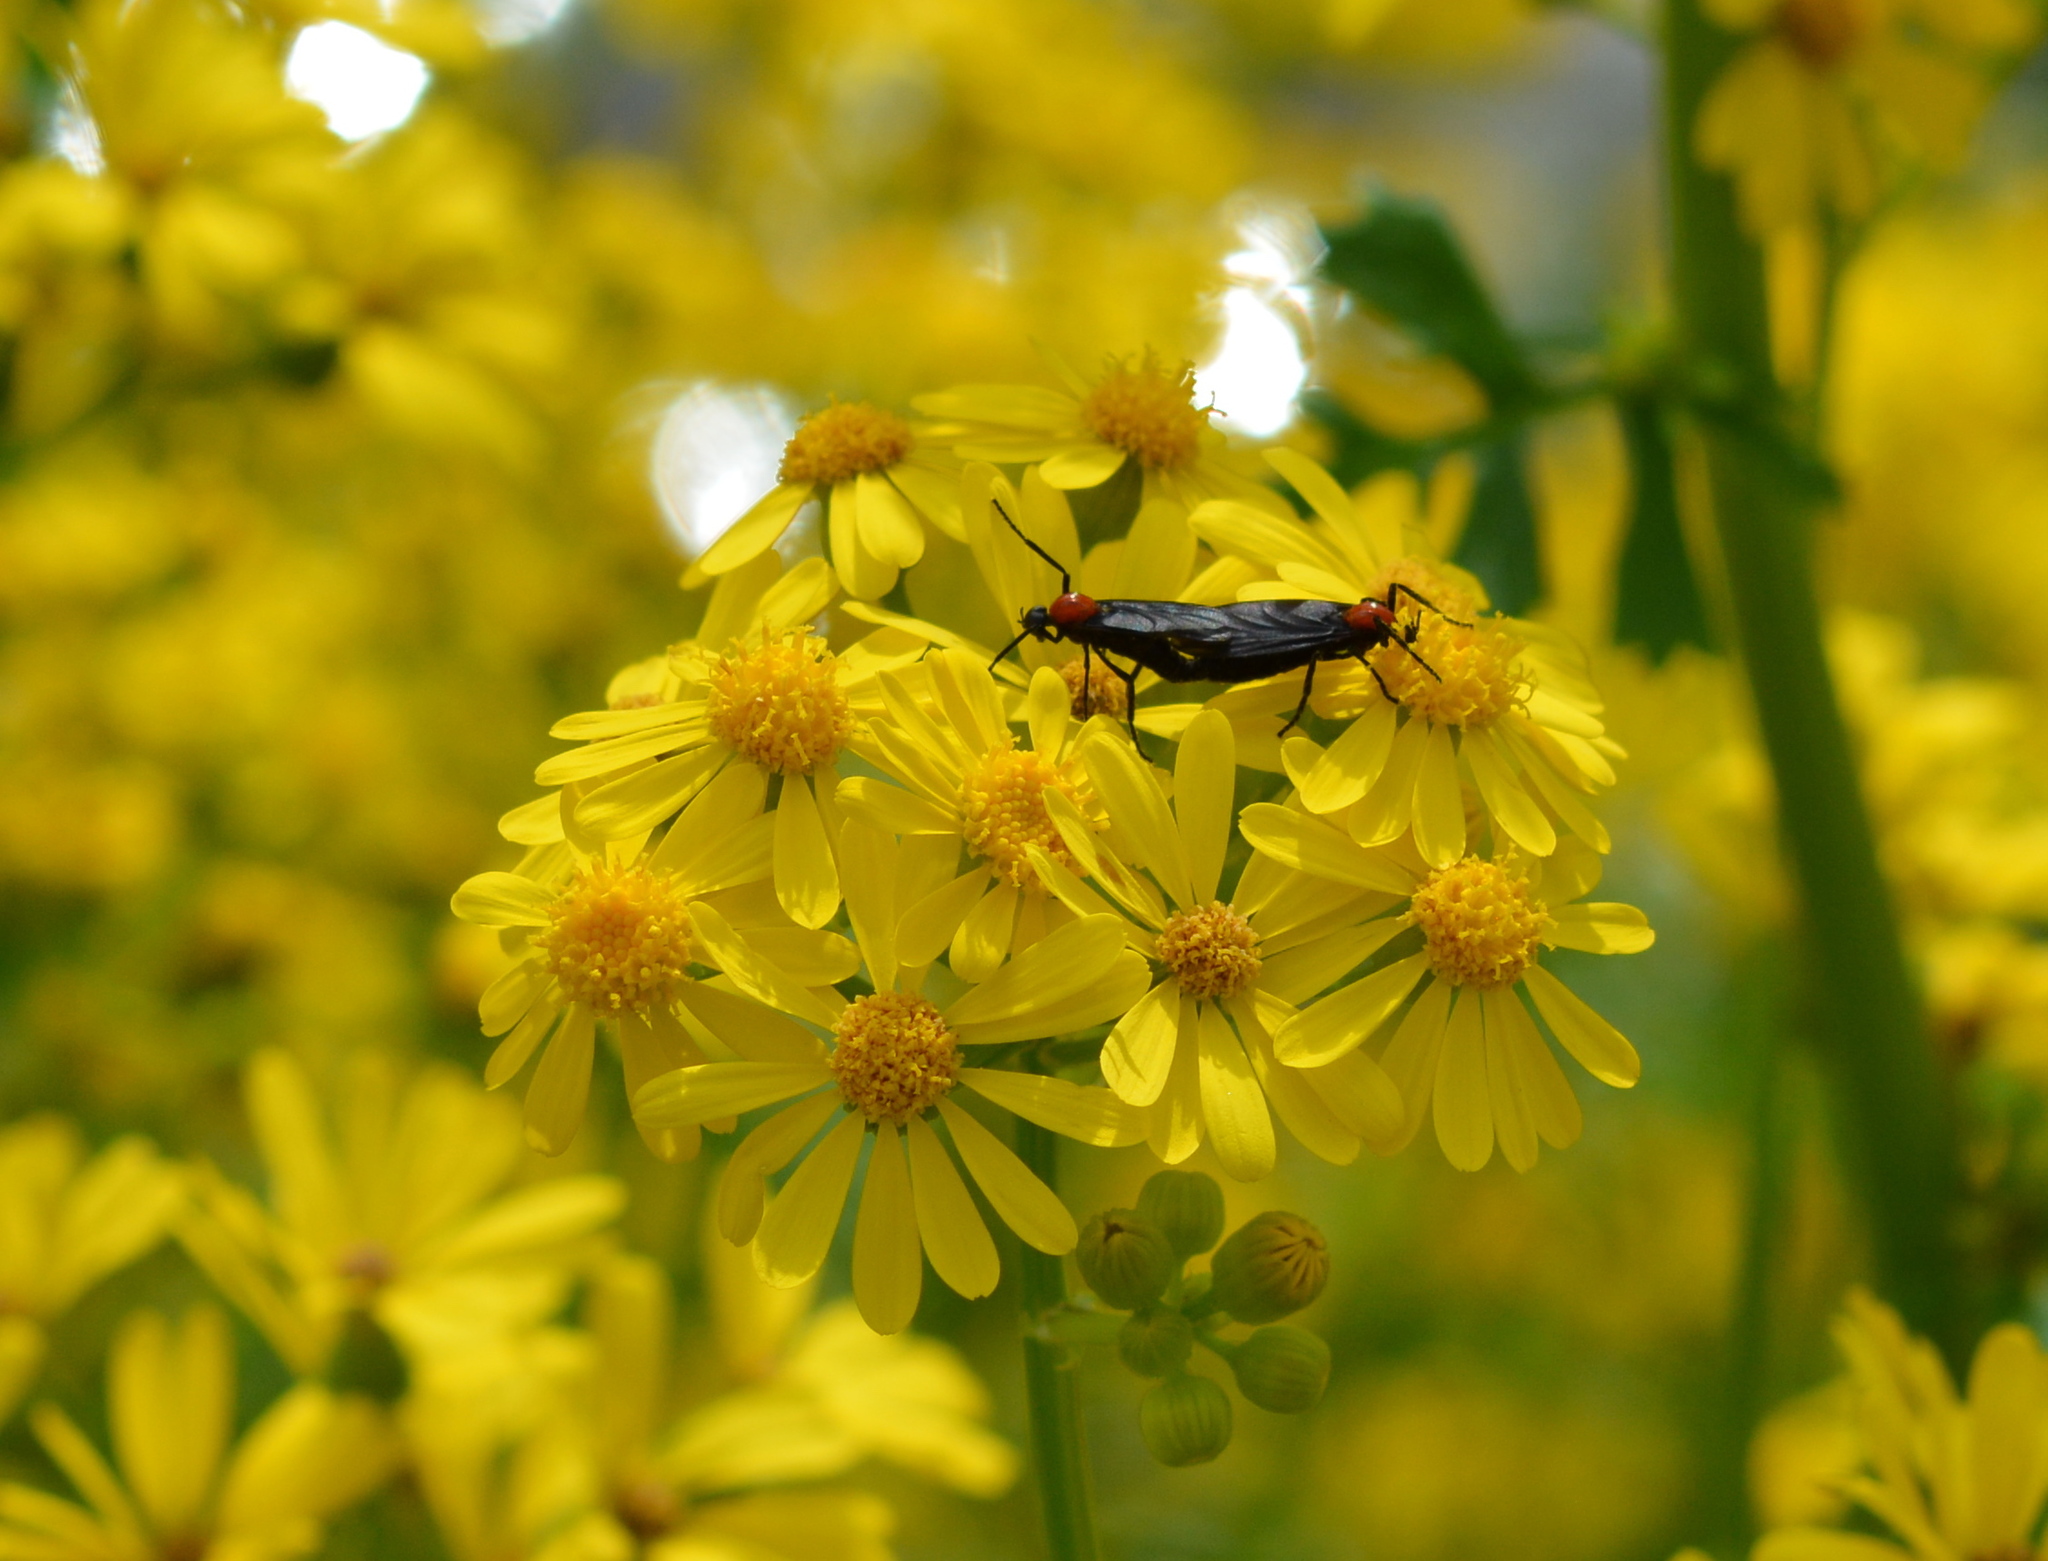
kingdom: Animalia
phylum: Arthropoda
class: Insecta
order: Diptera
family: Bibionidae
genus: Plecia
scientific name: Plecia nearctica
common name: March fly
